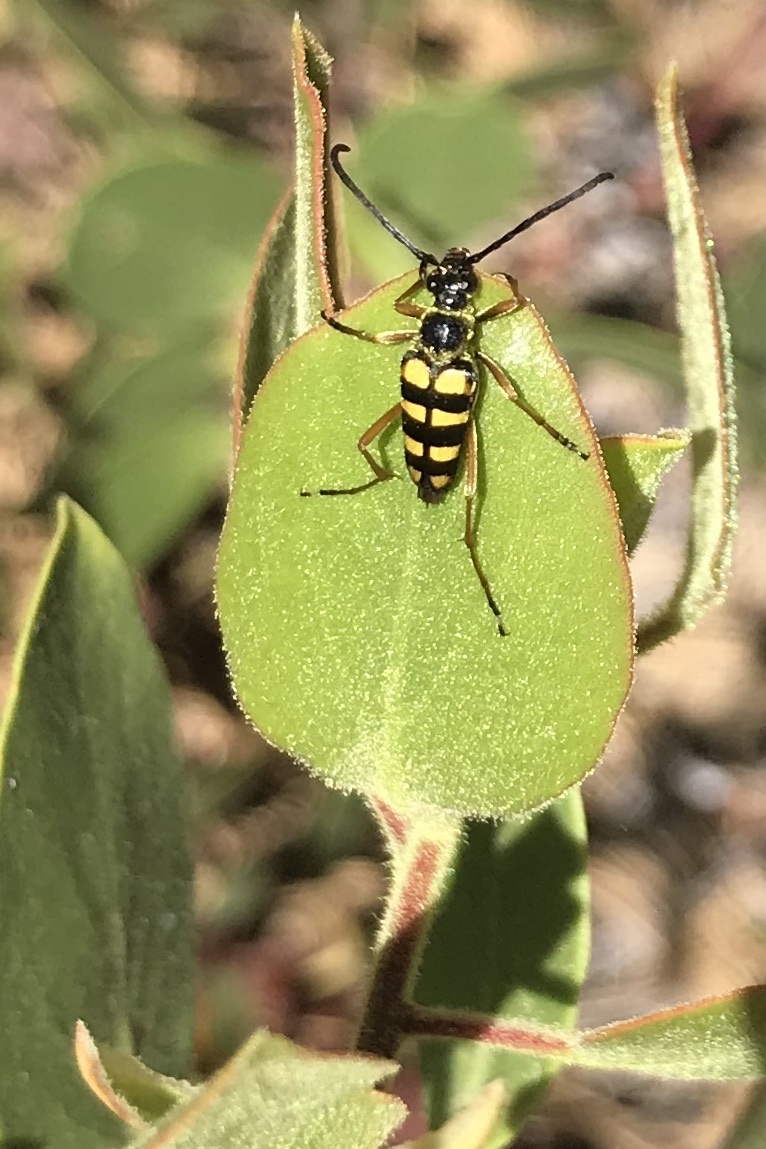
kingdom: Animalia
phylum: Arthropoda
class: Insecta
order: Coleoptera
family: Cerambycidae
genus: Stenostrophia
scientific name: Stenostrophia tribalteata
